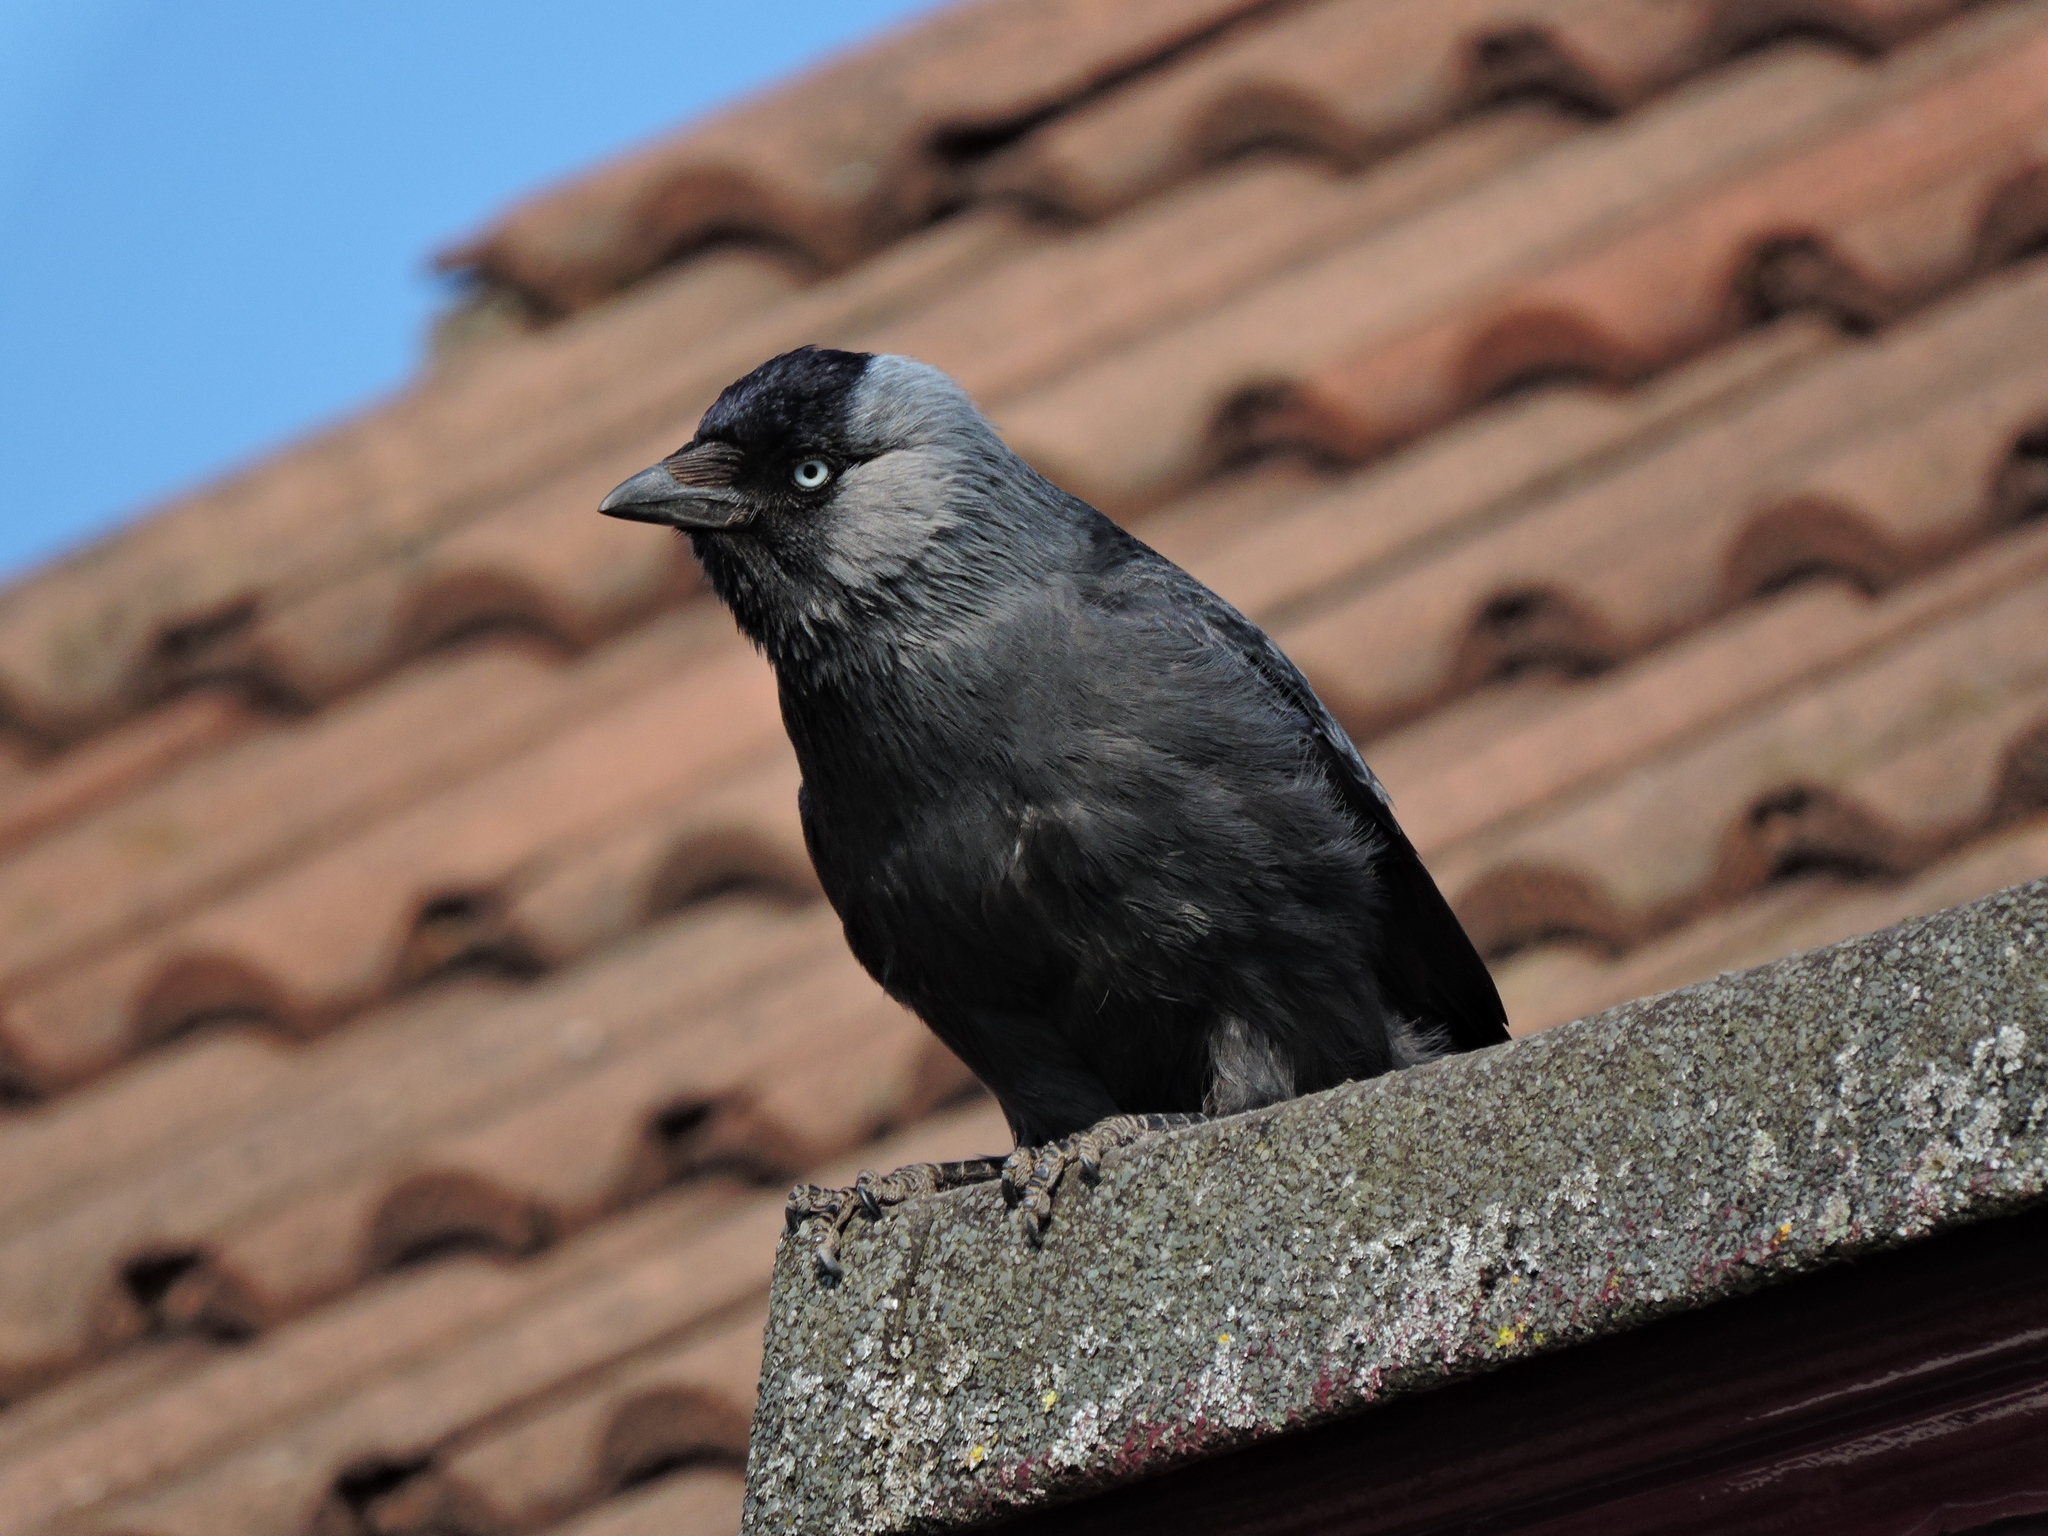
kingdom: Animalia
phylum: Chordata
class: Aves
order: Passeriformes
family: Corvidae
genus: Coloeus
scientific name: Coloeus monedula
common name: Western jackdaw
